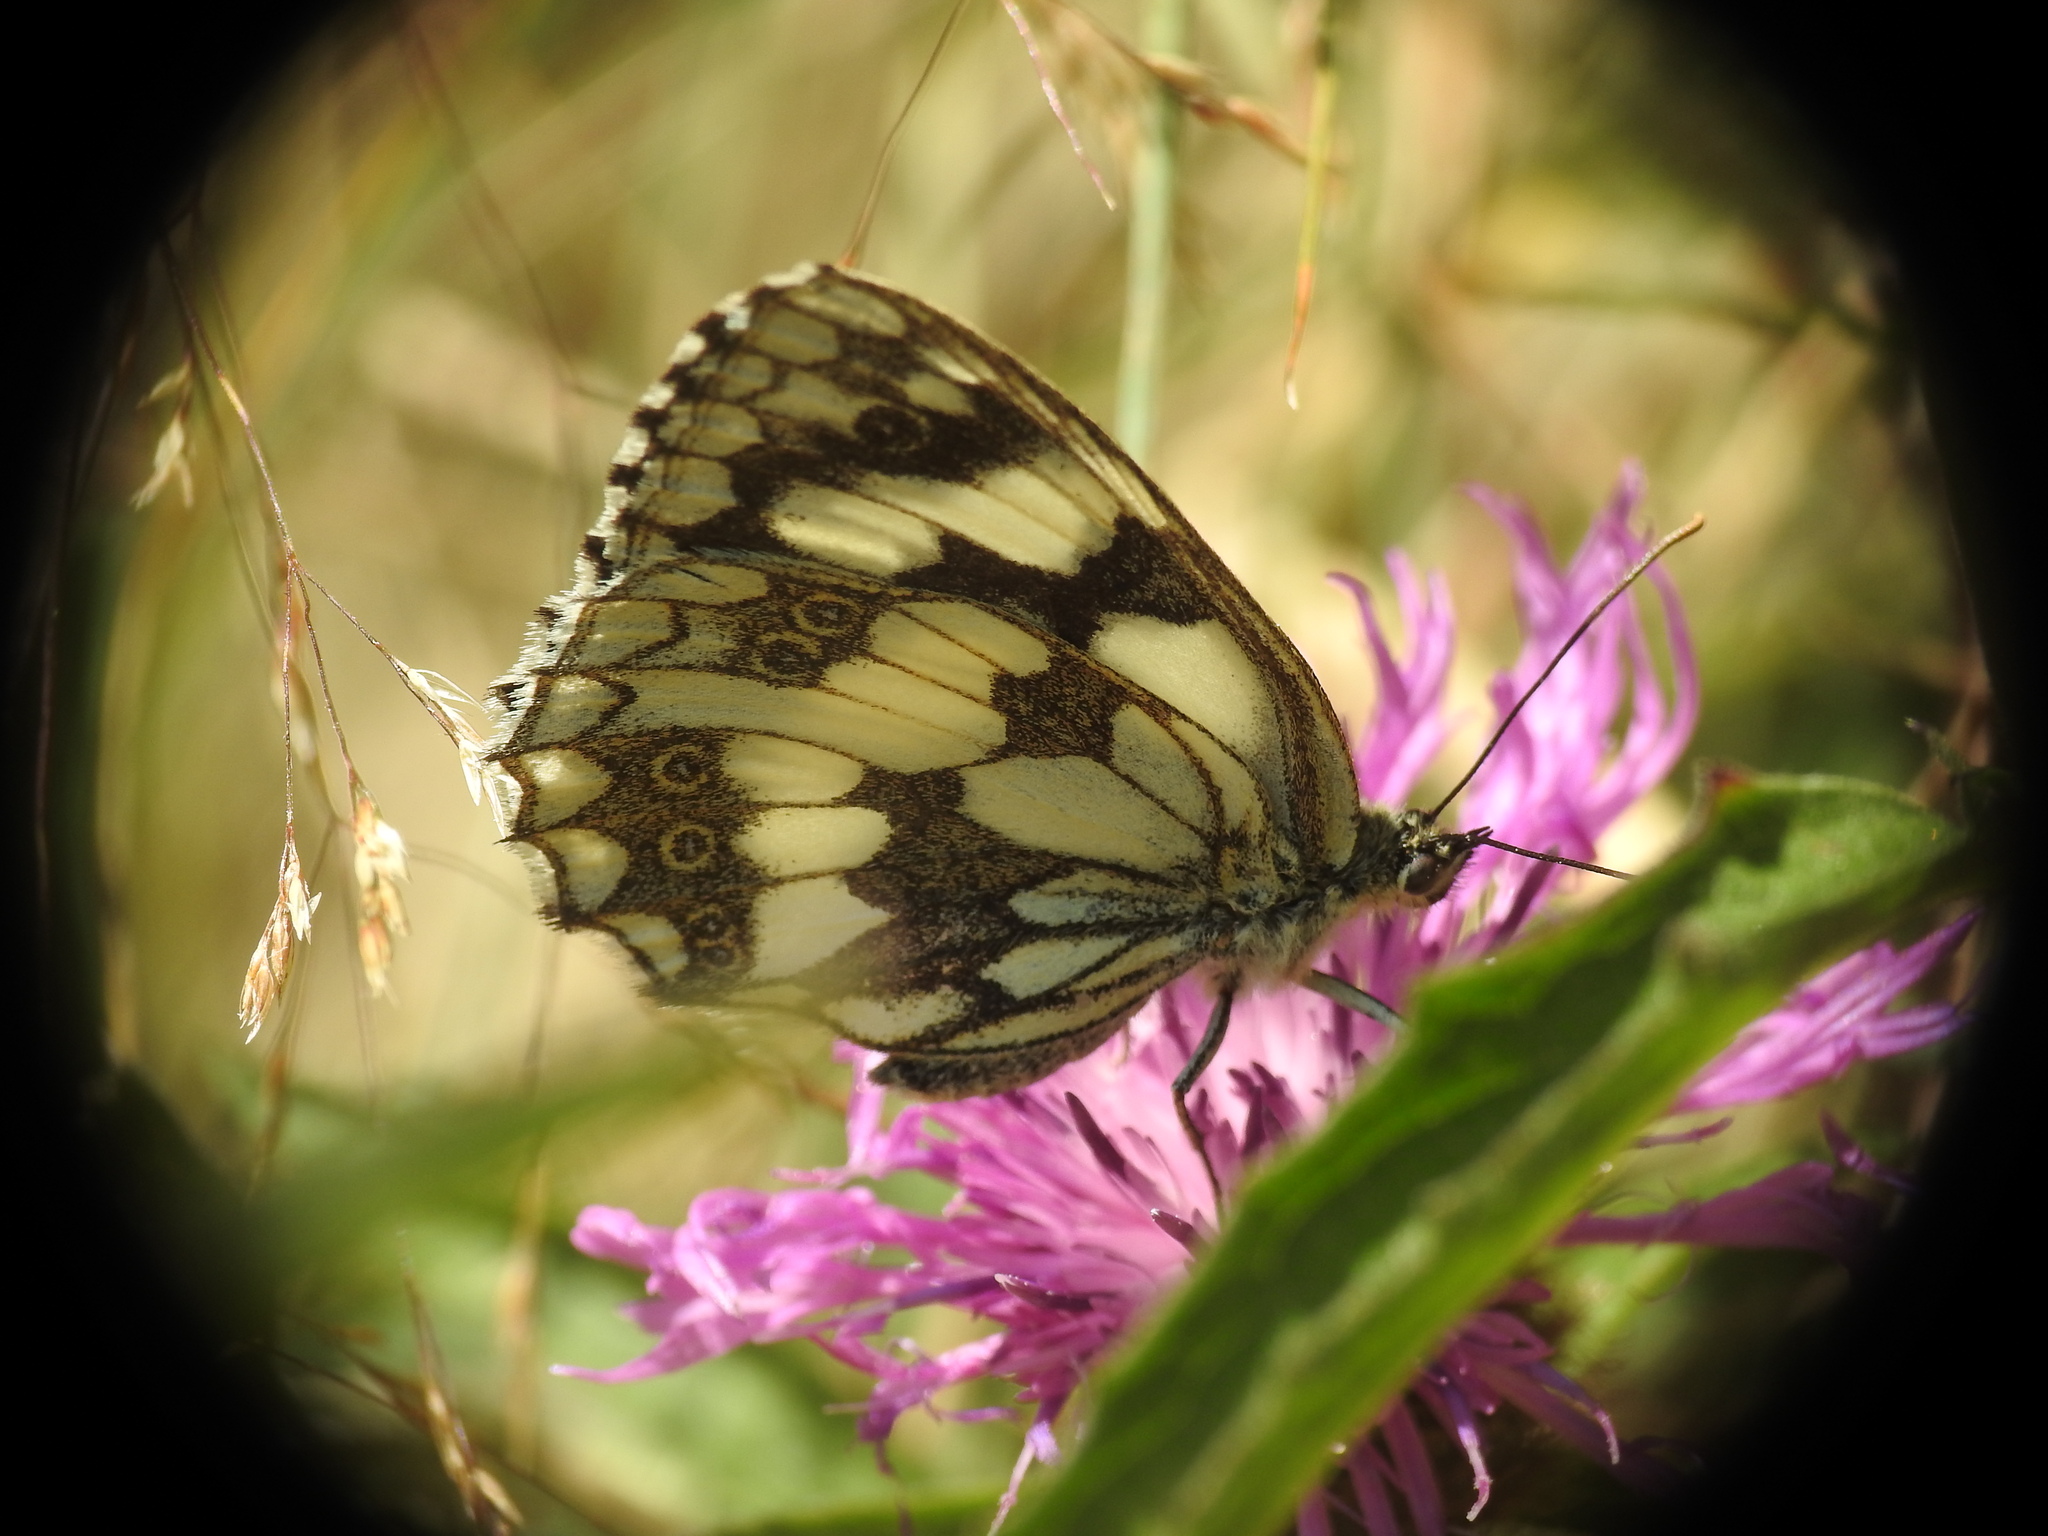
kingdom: Animalia
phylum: Arthropoda
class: Insecta
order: Lepidoptera
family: Nymphalidae
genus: Melanargia
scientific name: Melanargia galathea
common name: Marbled white
